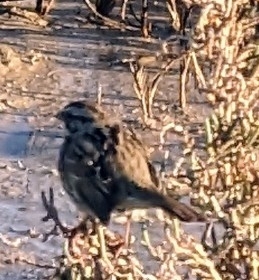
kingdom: Animalia
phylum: Chordata
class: Aves
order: Passeriformes
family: Passerellidae
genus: Melospiza
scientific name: Melospiza melodia
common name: Song sparrow
